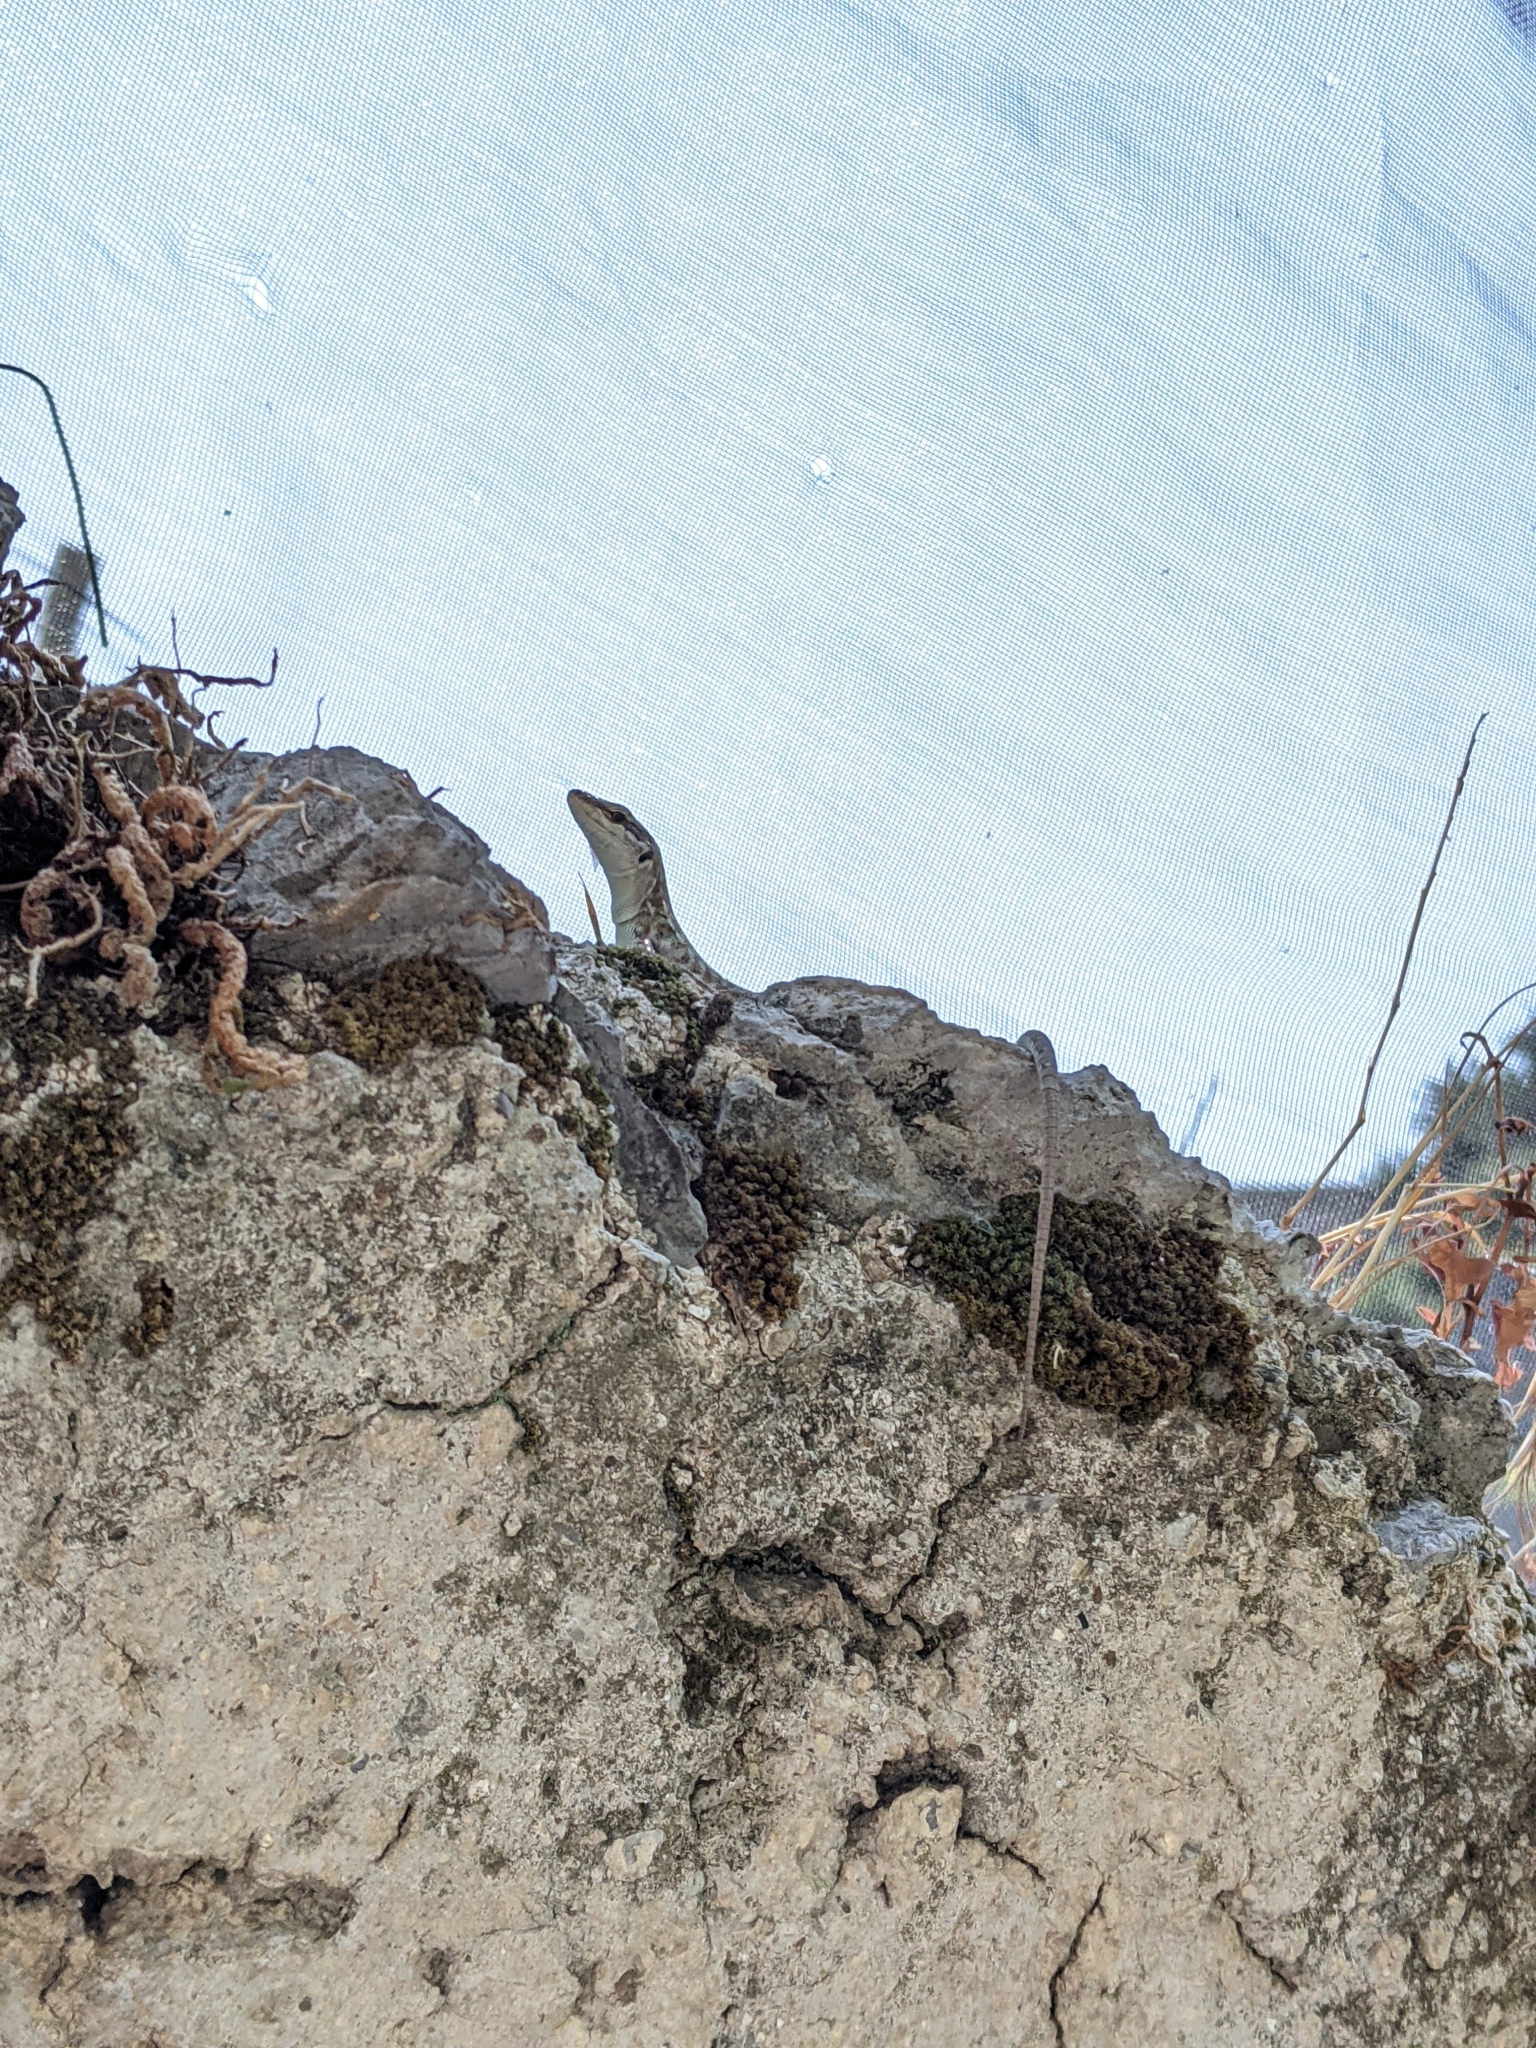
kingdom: Animalia
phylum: Chordata
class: Squamata
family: Lacertidae
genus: Podarcis
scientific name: Podarcis siculus
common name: Italian wall lizard
